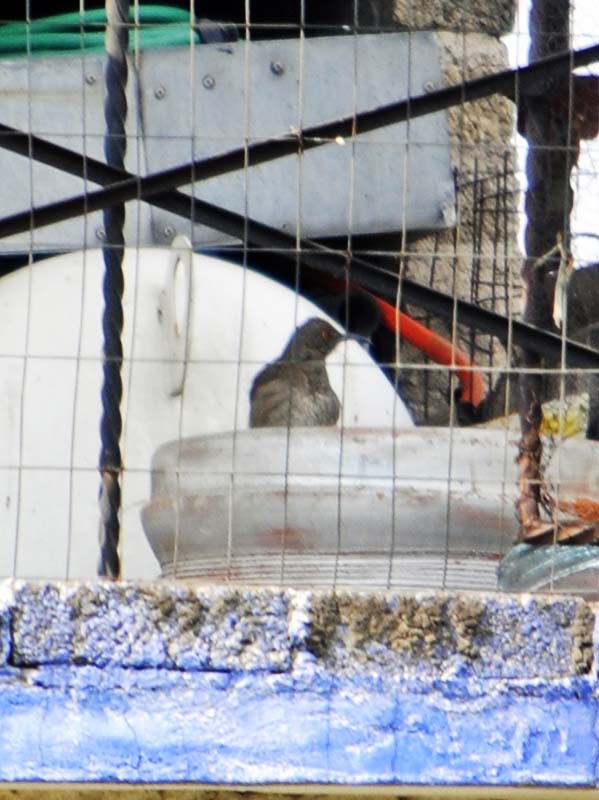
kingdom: Animalia
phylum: Chordata
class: Aves
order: Passeriformes
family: Mimidae
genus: Toxostoma
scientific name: Toxostoma curvirostre
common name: Curve-billed thrasher
